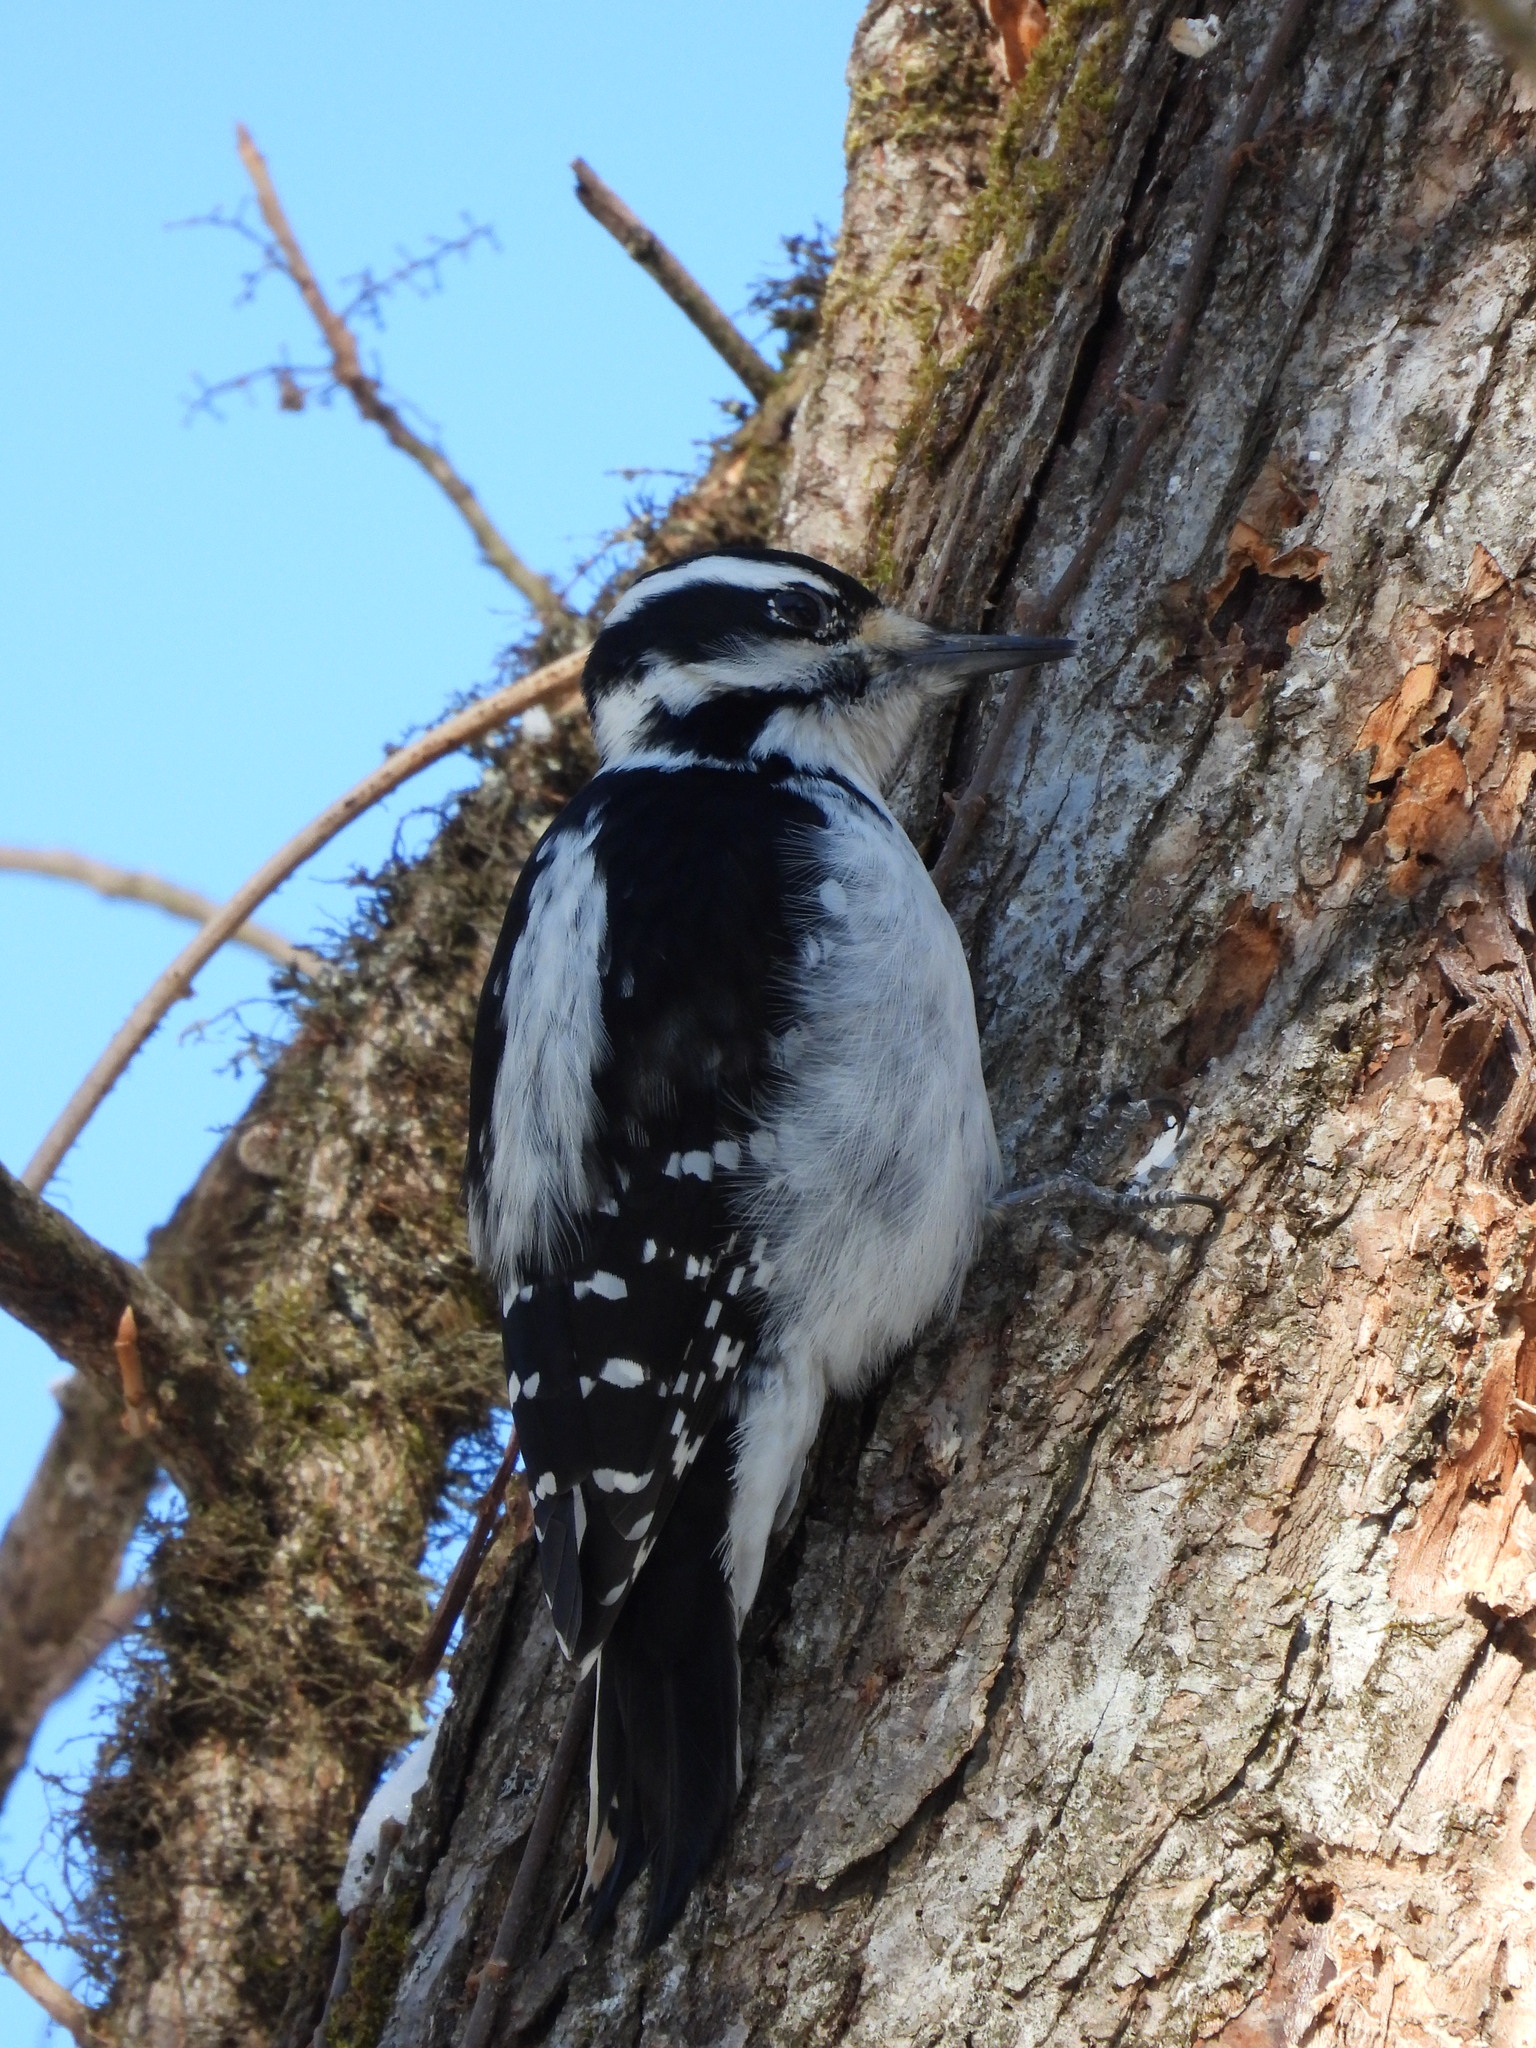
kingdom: Animalia
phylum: Chordata
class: Aves
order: Piciformes
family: Picidae
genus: Leuconotopicus
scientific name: Leuconotopicus villosus
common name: Hairy woodpecker
